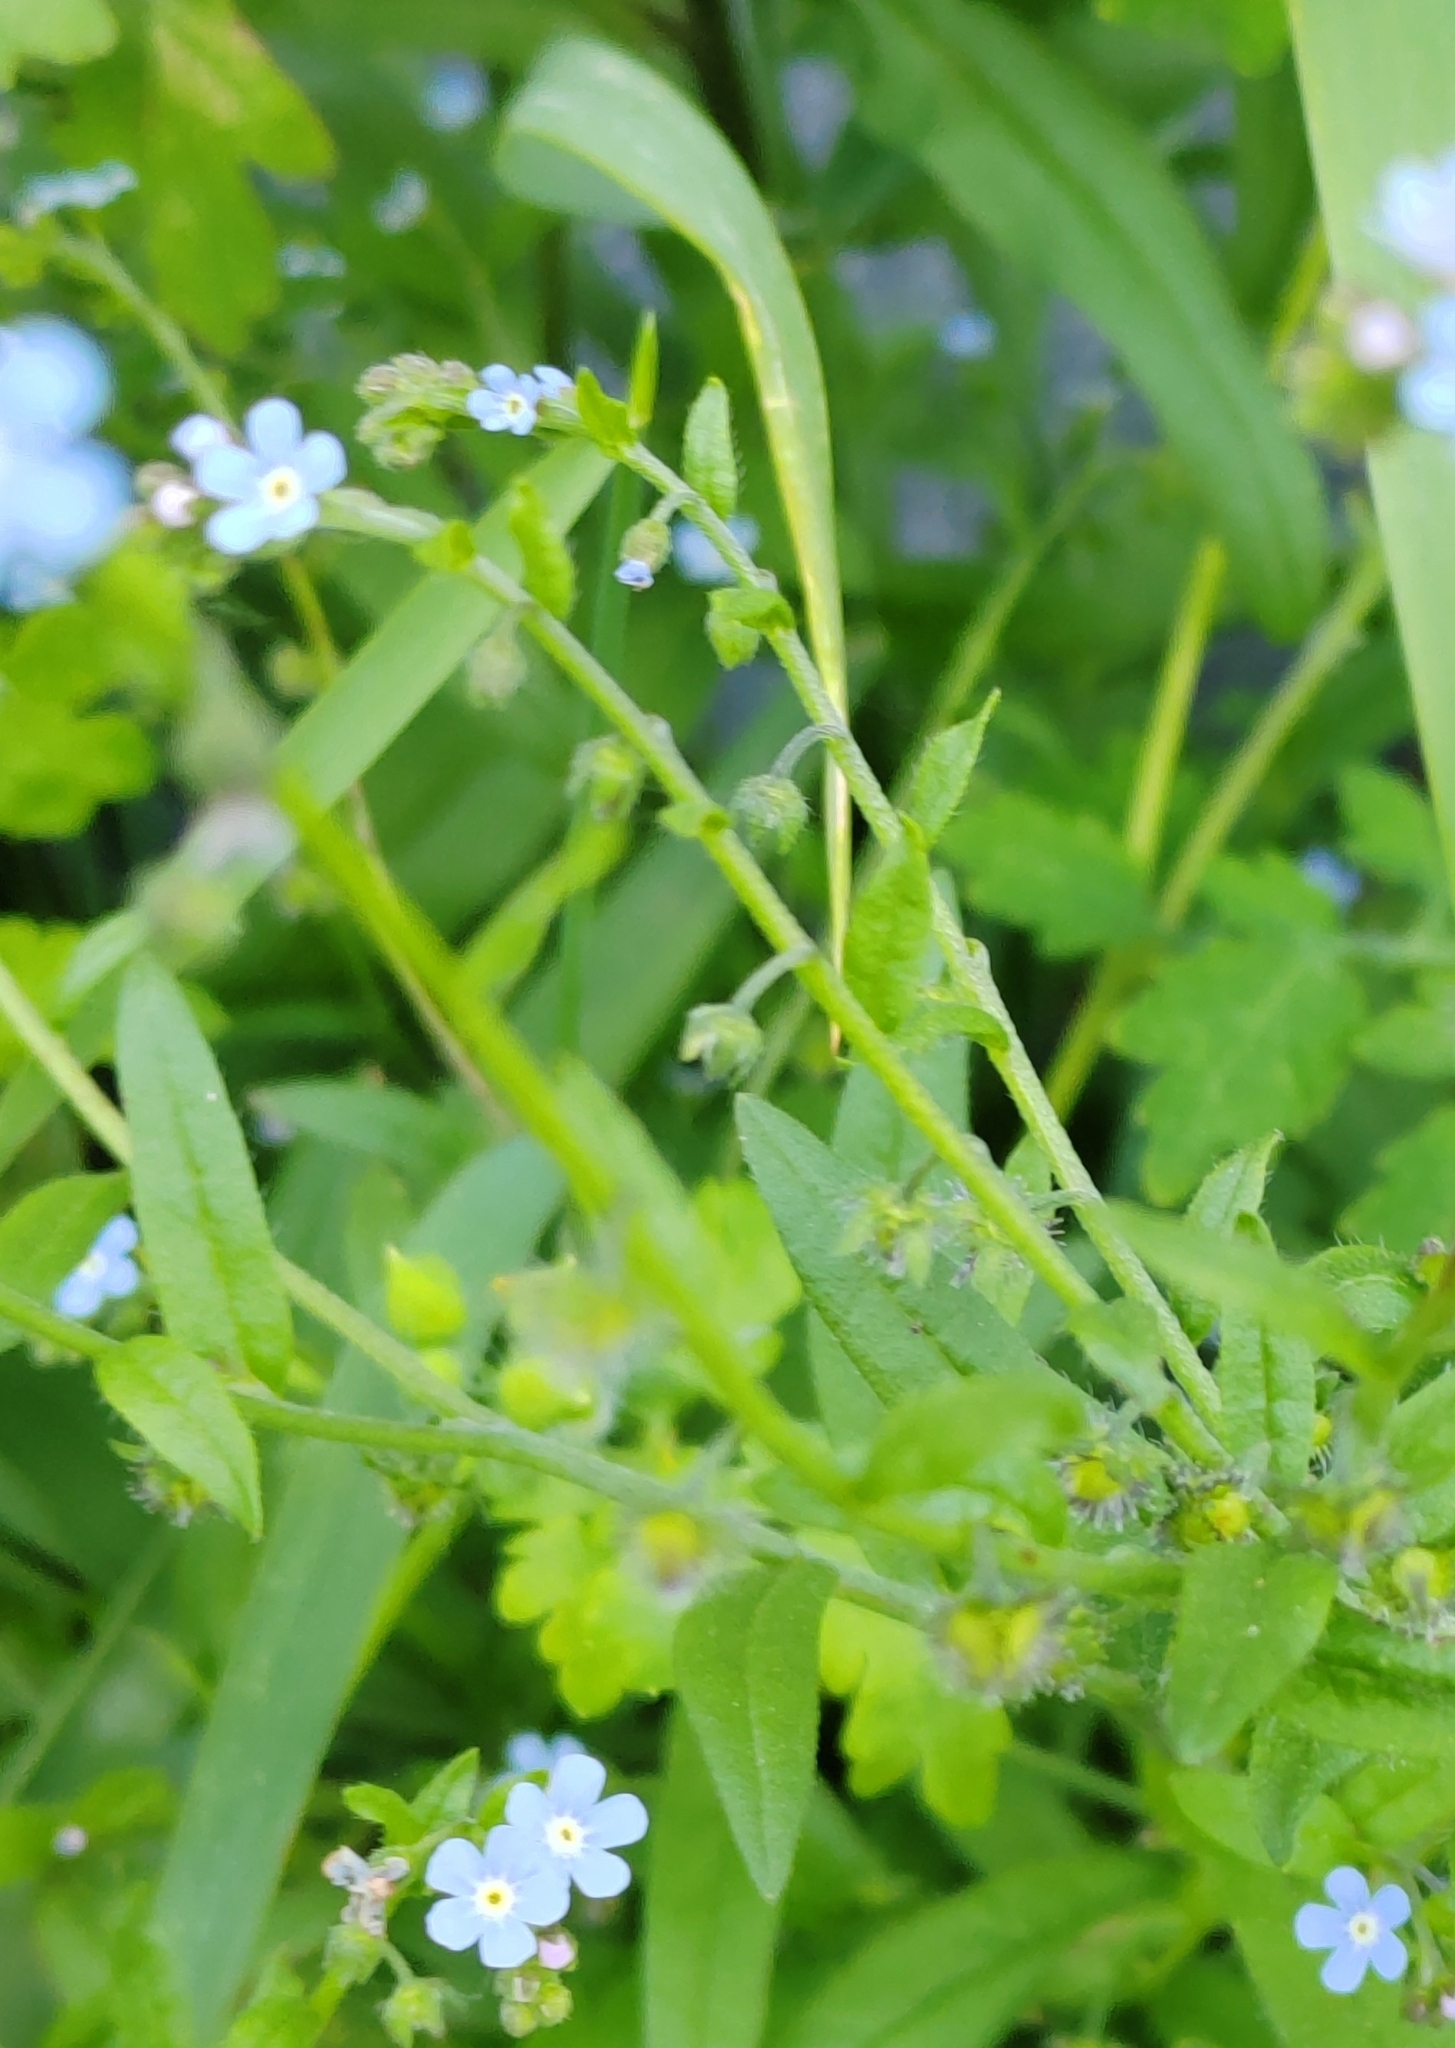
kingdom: Plantae
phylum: Tracheophyta
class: Magnoliopsida
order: Boraginales
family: Boraginaceae
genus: Hackelia
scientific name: Hackelia deflexa
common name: Nodding stickseed
